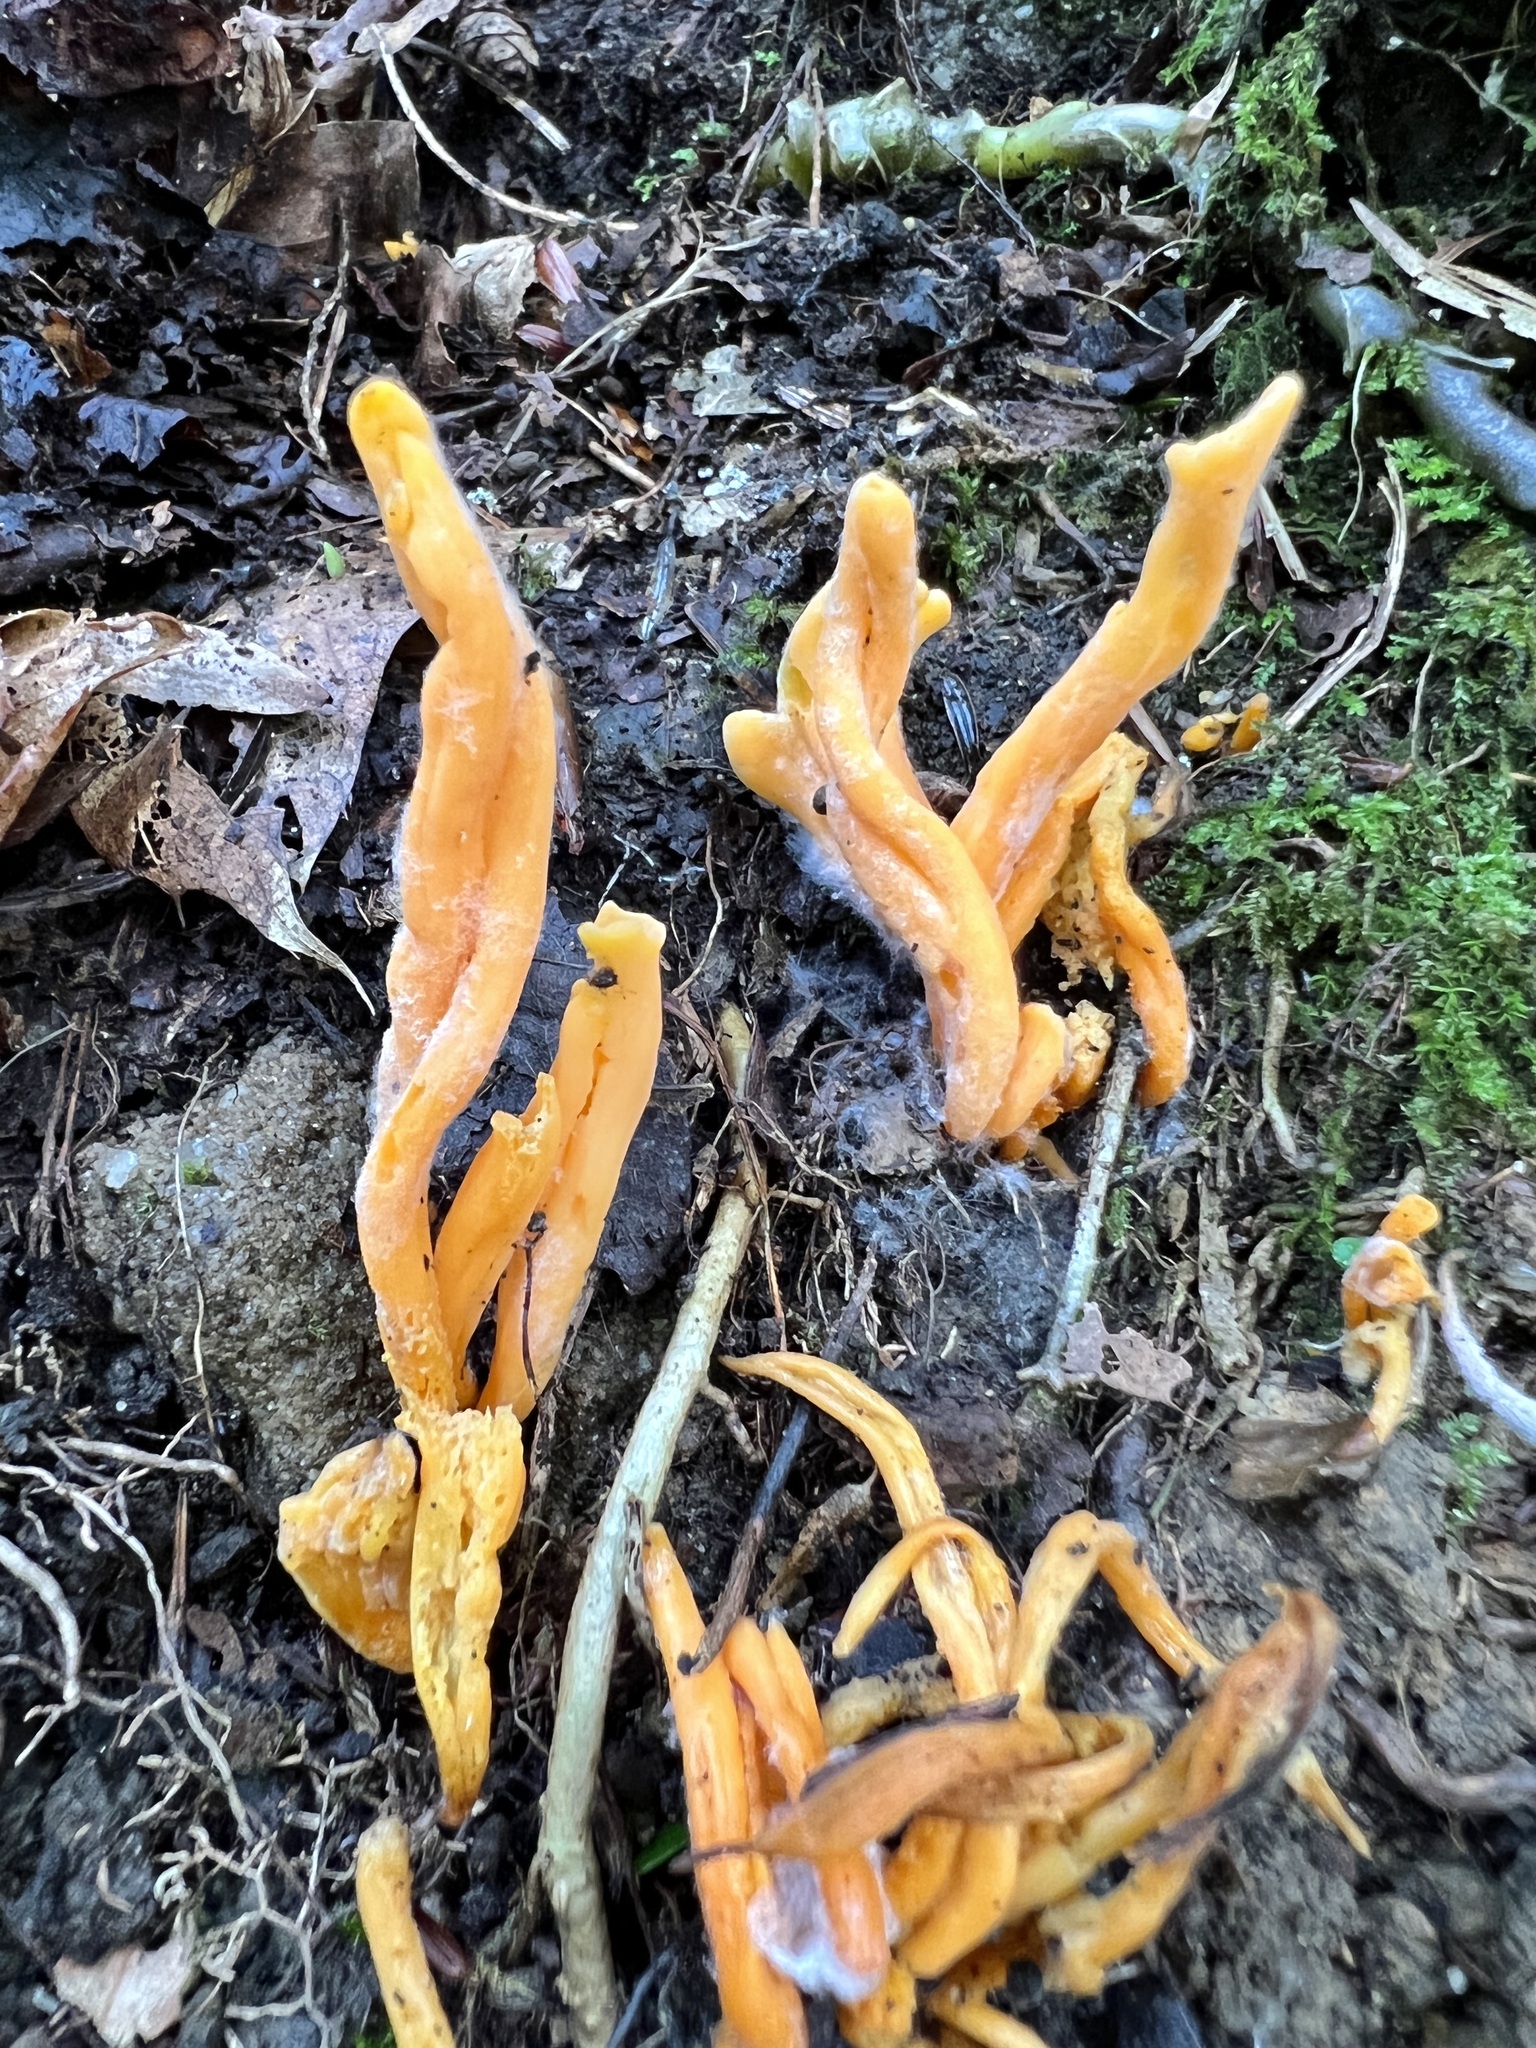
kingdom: Fungi
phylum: Basidiomycota
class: Agaricomycetes
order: Agaricales
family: Clavariaceae
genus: Clavulinopsis
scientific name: Clavulinopsis aurantiocinnabarina
